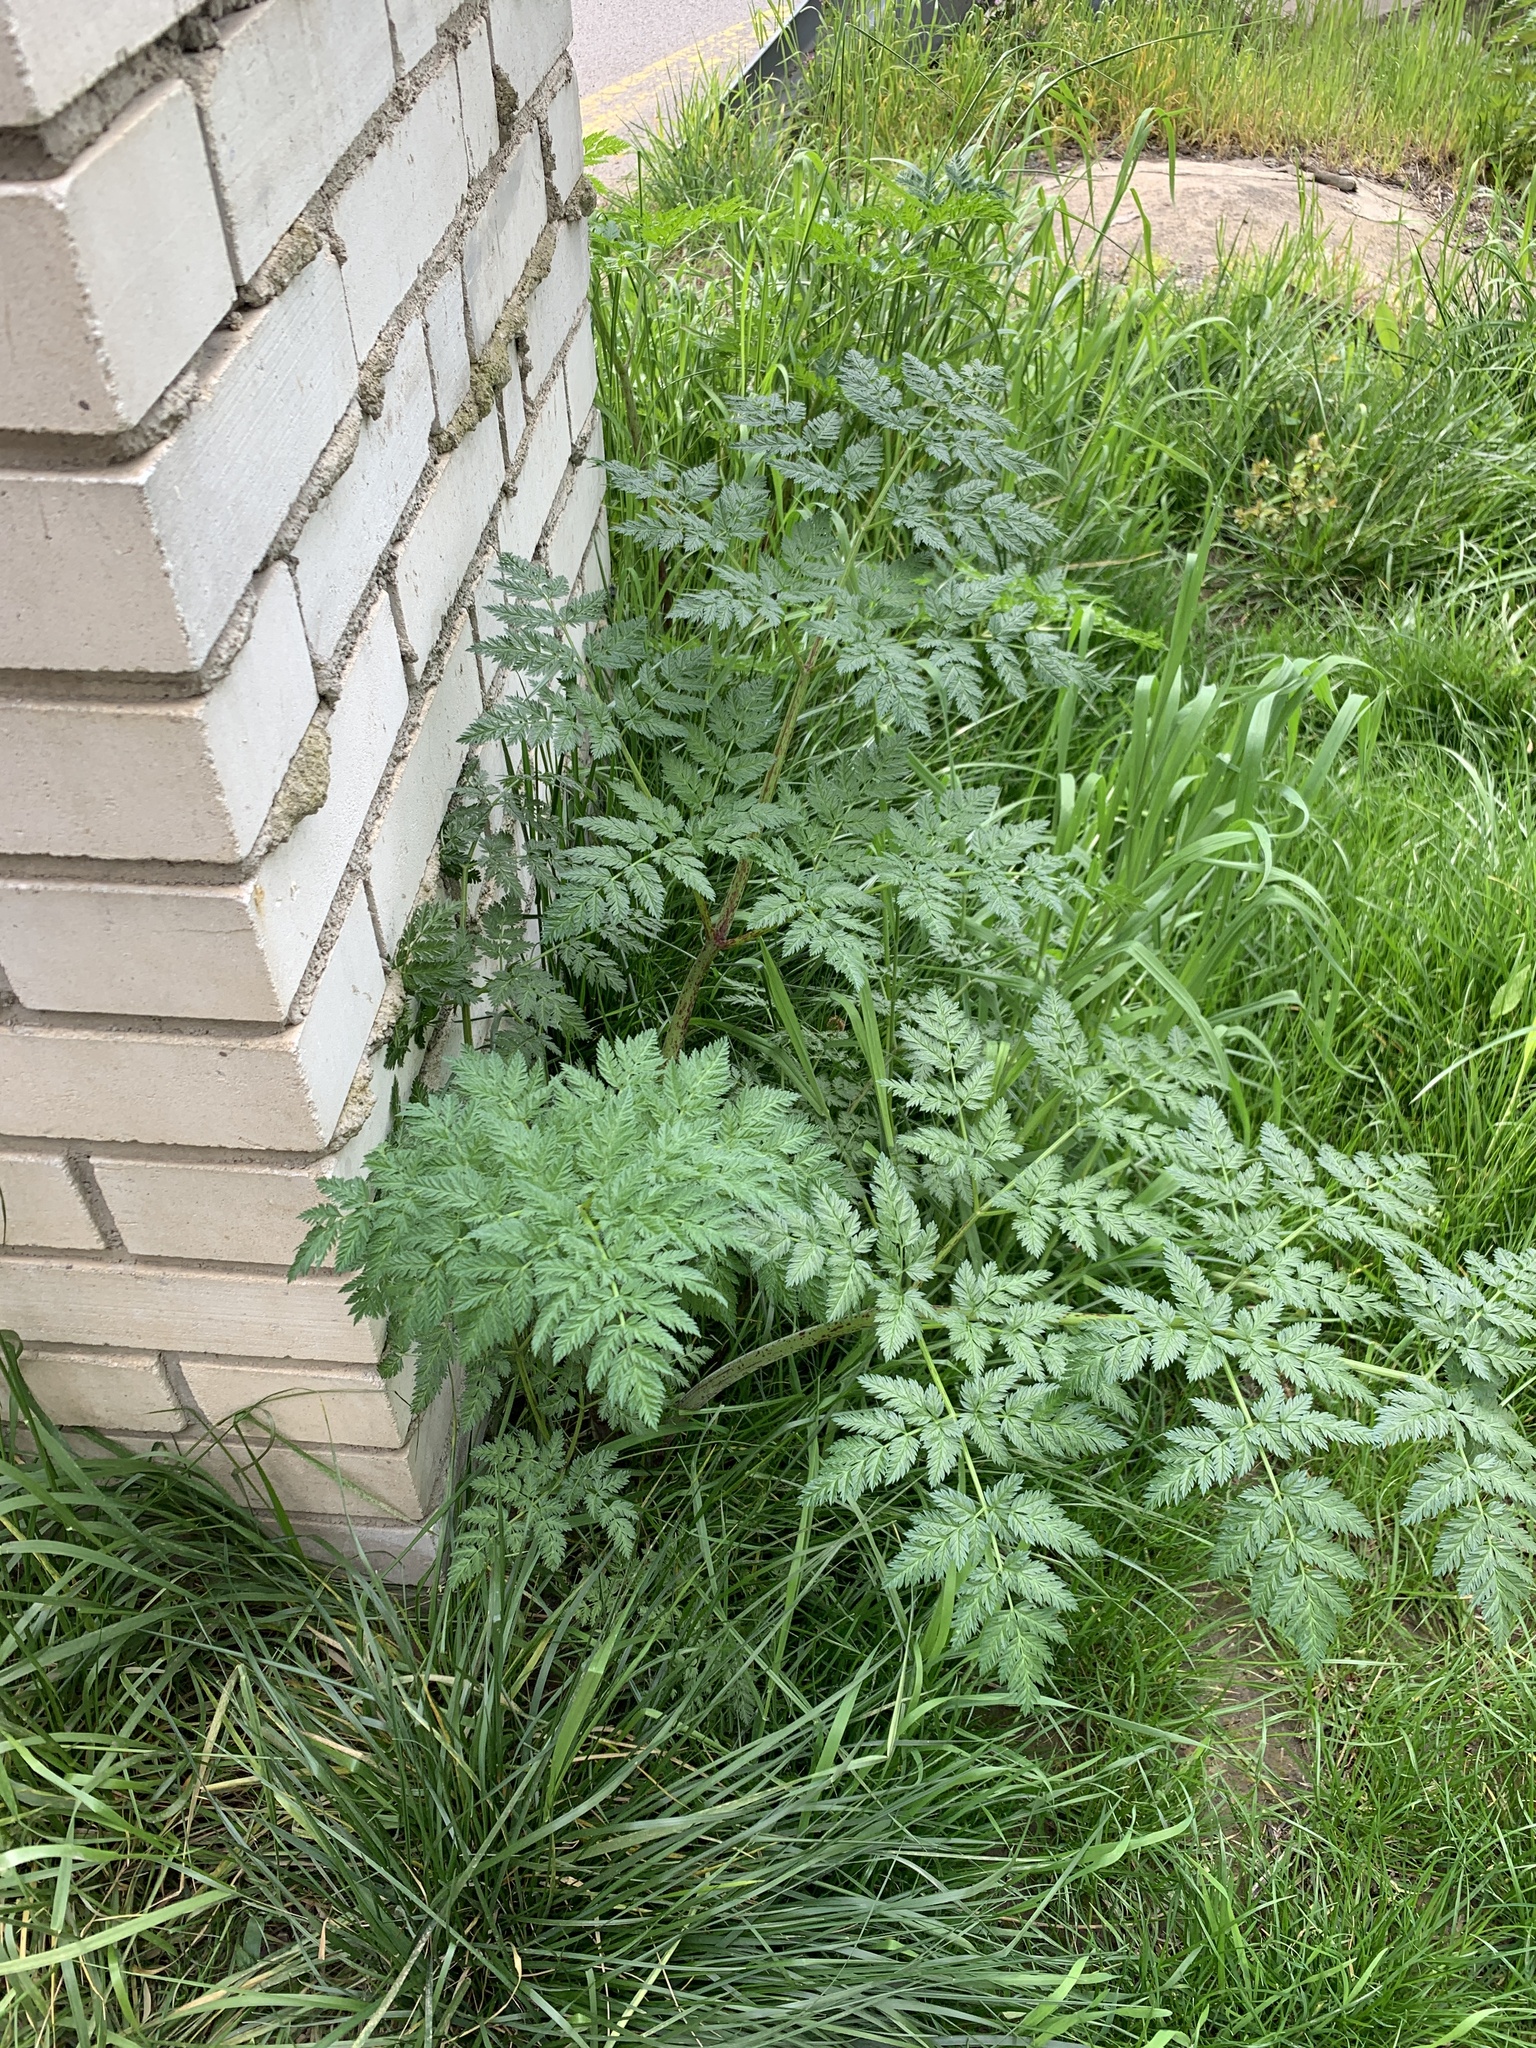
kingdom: Plantae
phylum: Tracheophyta
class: Magnoliopsida
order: Apiales
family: Apiaceae
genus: Conium
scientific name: Conium maculatum
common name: Hemlock
